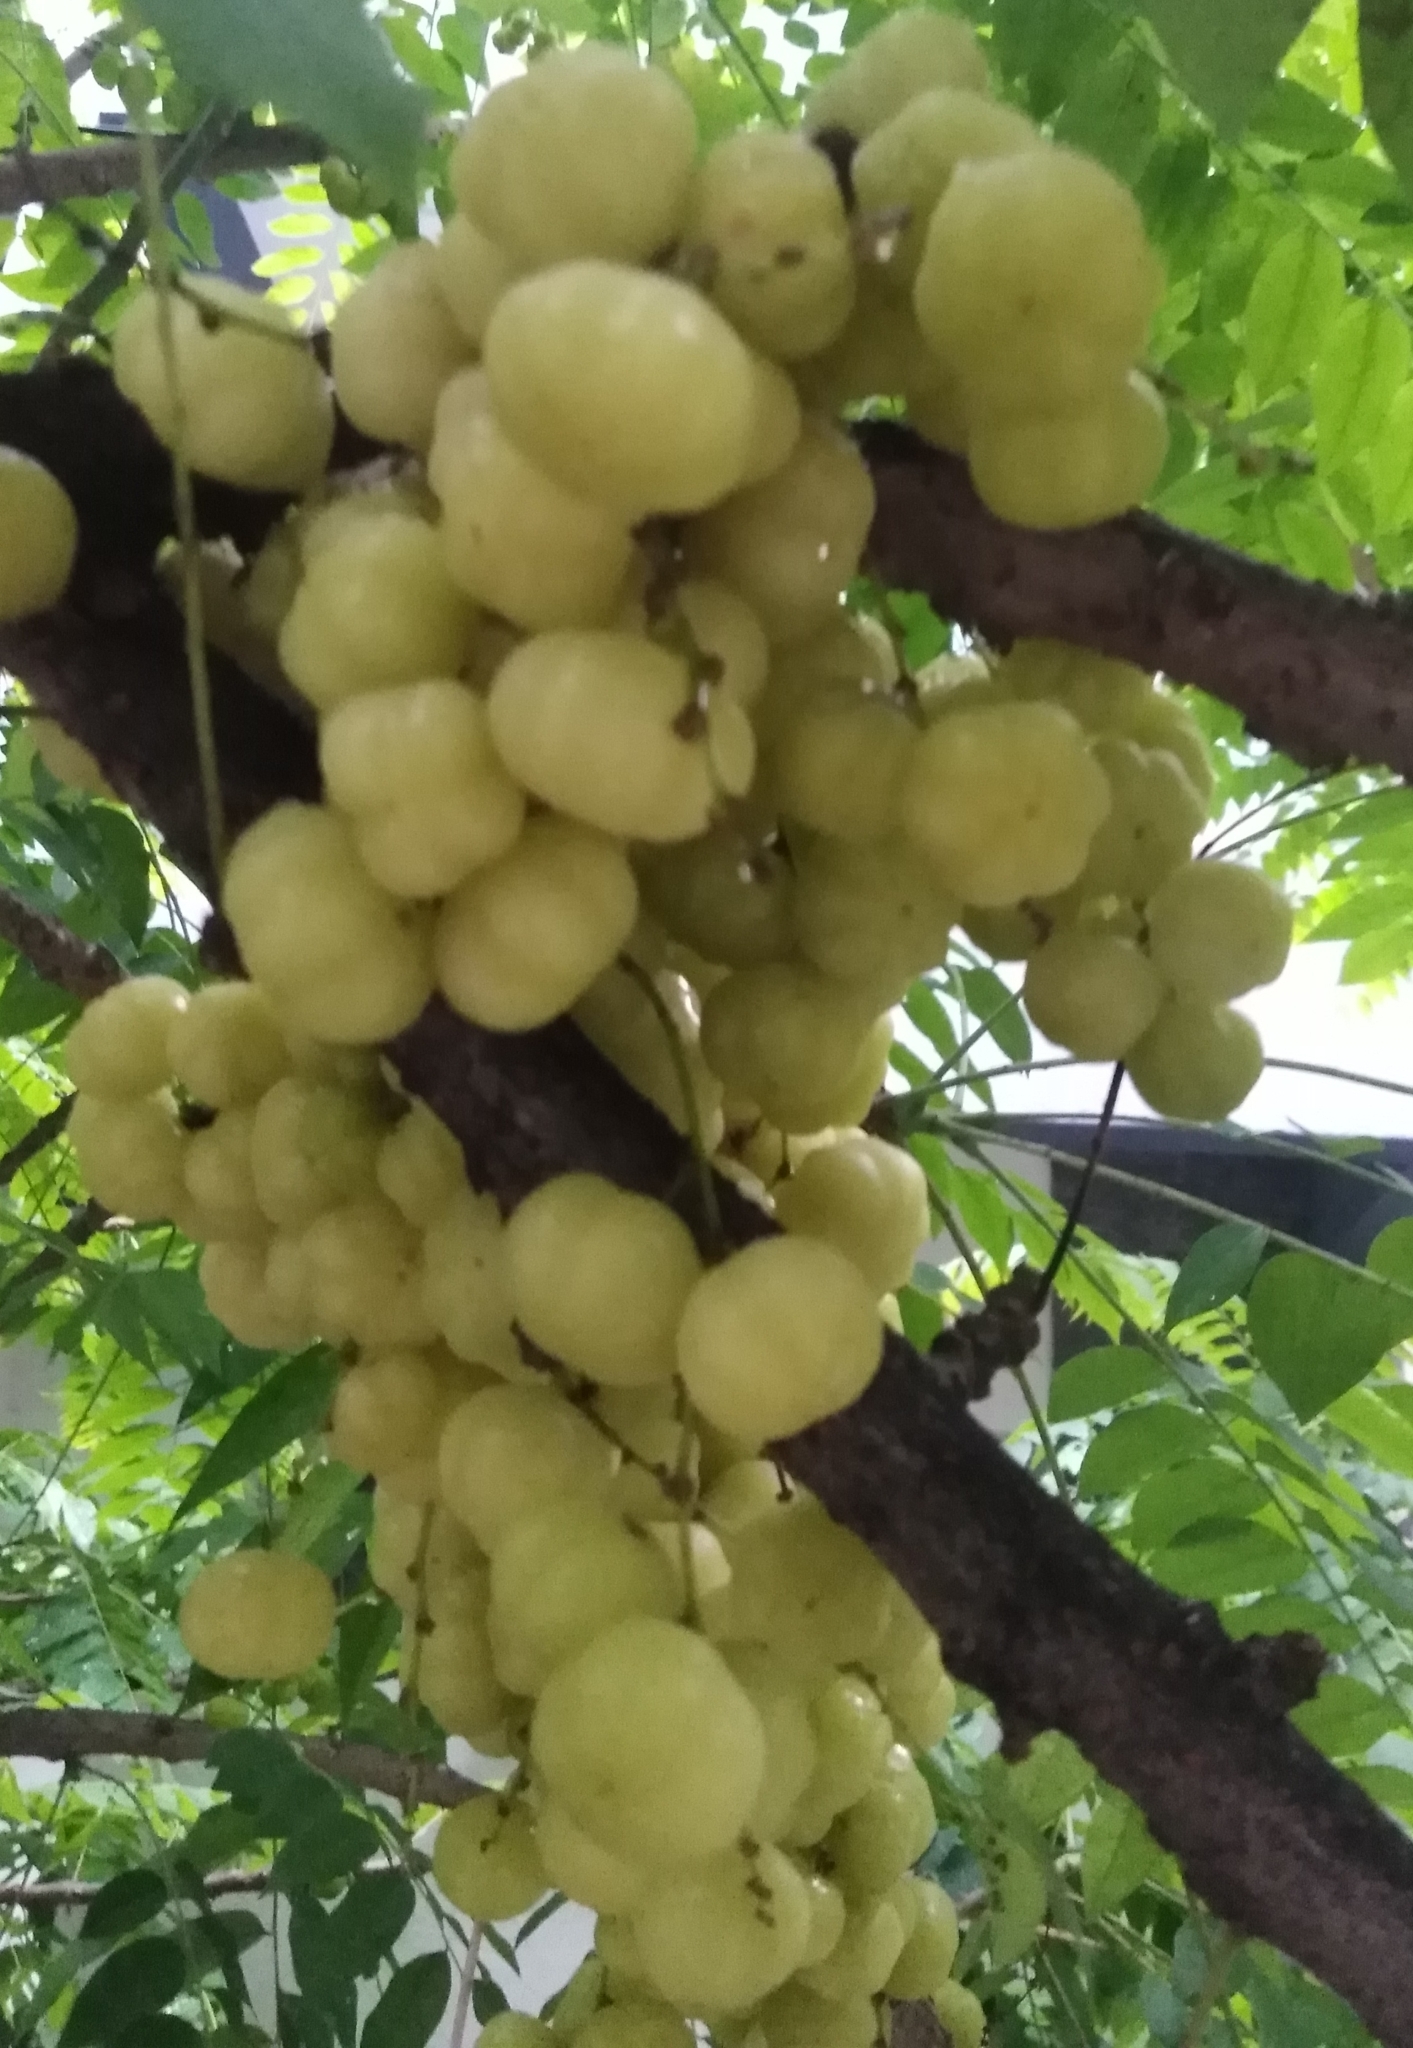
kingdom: Plantae
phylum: Tracheophyta
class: Magnoliopsida
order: Malpighiales
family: Phyllanthaceae
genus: Phyllanthus
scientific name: Phyllanthus acidus
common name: Tahitian gooseberry tree
